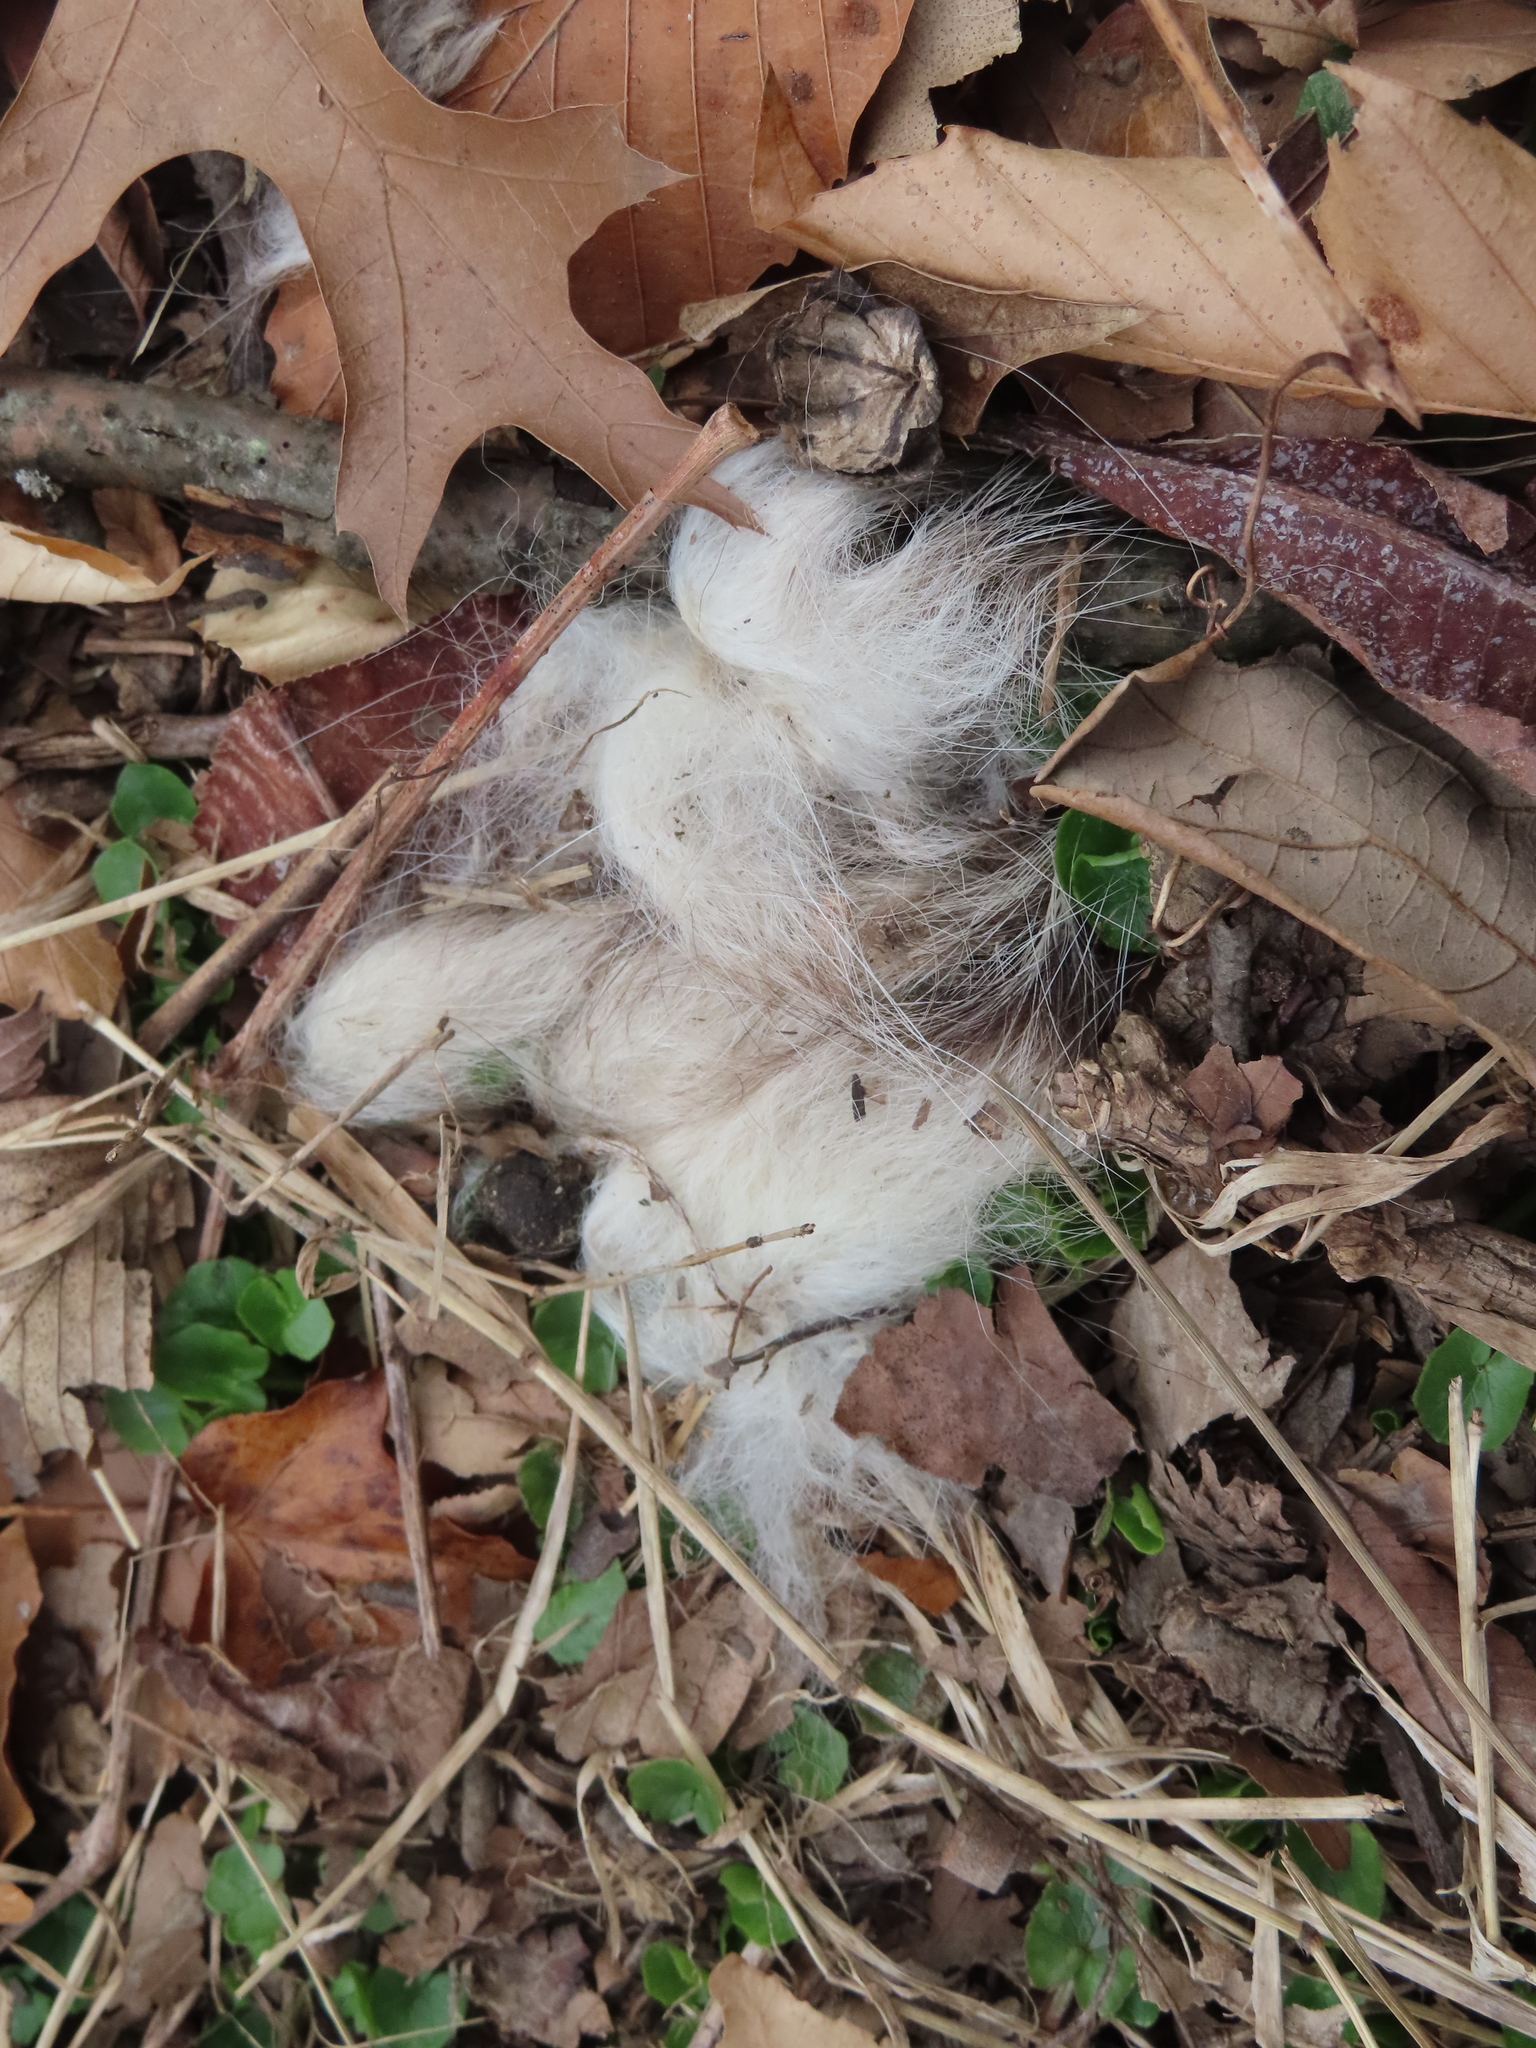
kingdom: Animalia
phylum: Chordata
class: Mammalia
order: Didelphimorphia
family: Didelphidae
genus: Didelphis
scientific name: Didelphis virginiana
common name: Virginia opossum
